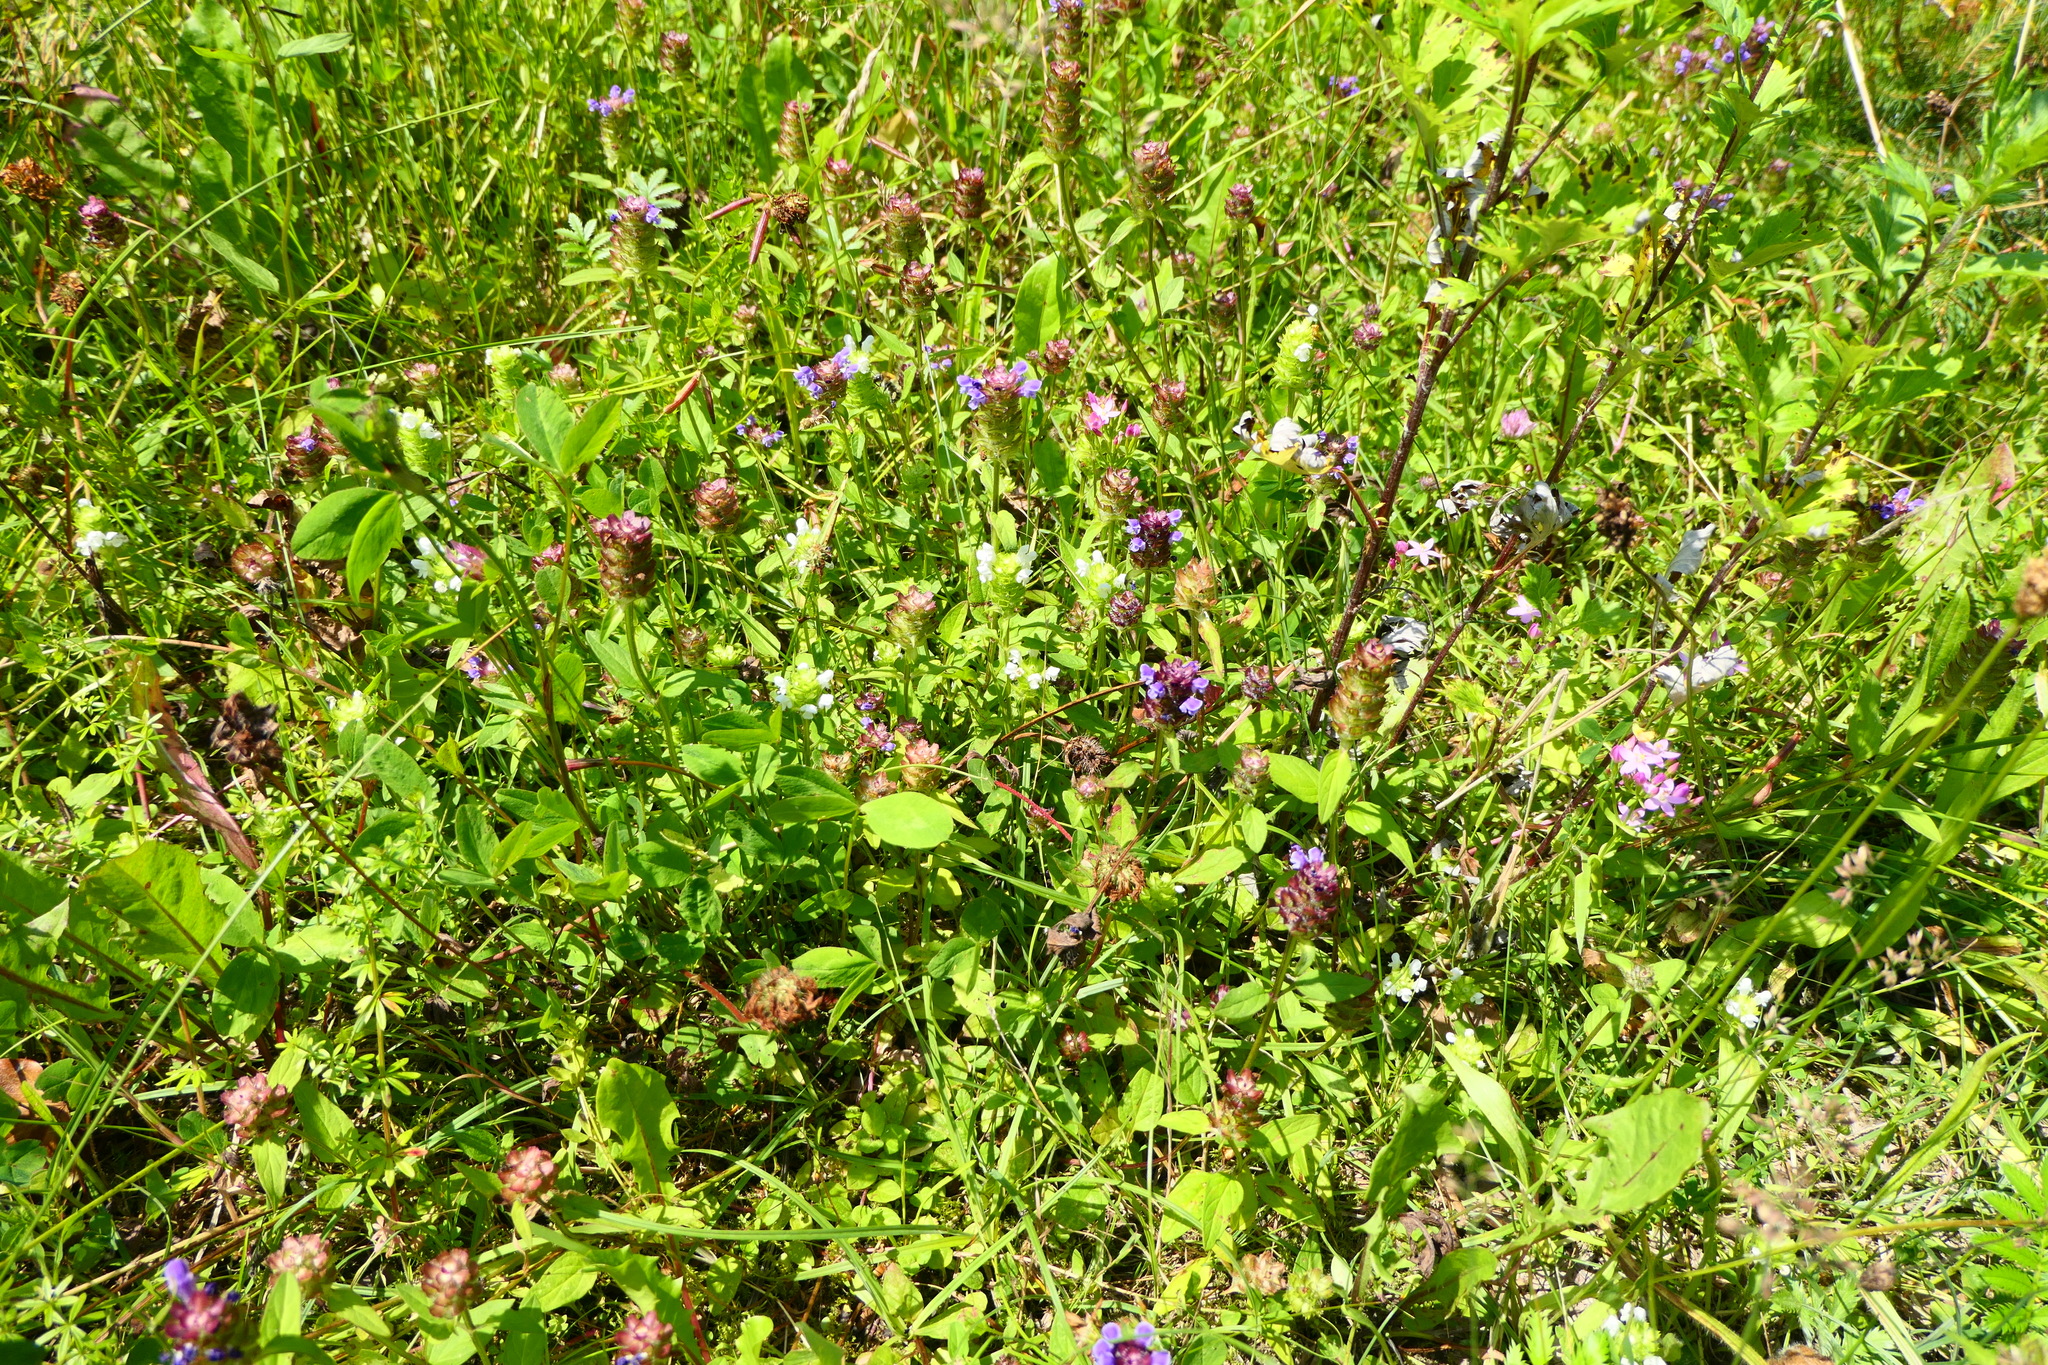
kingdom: Plantae
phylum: Tracheophyta
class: Magnoliopsida
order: Lamiales
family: Lamiaceae
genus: Prunella
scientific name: Prunella vulgaris
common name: Heal-all
